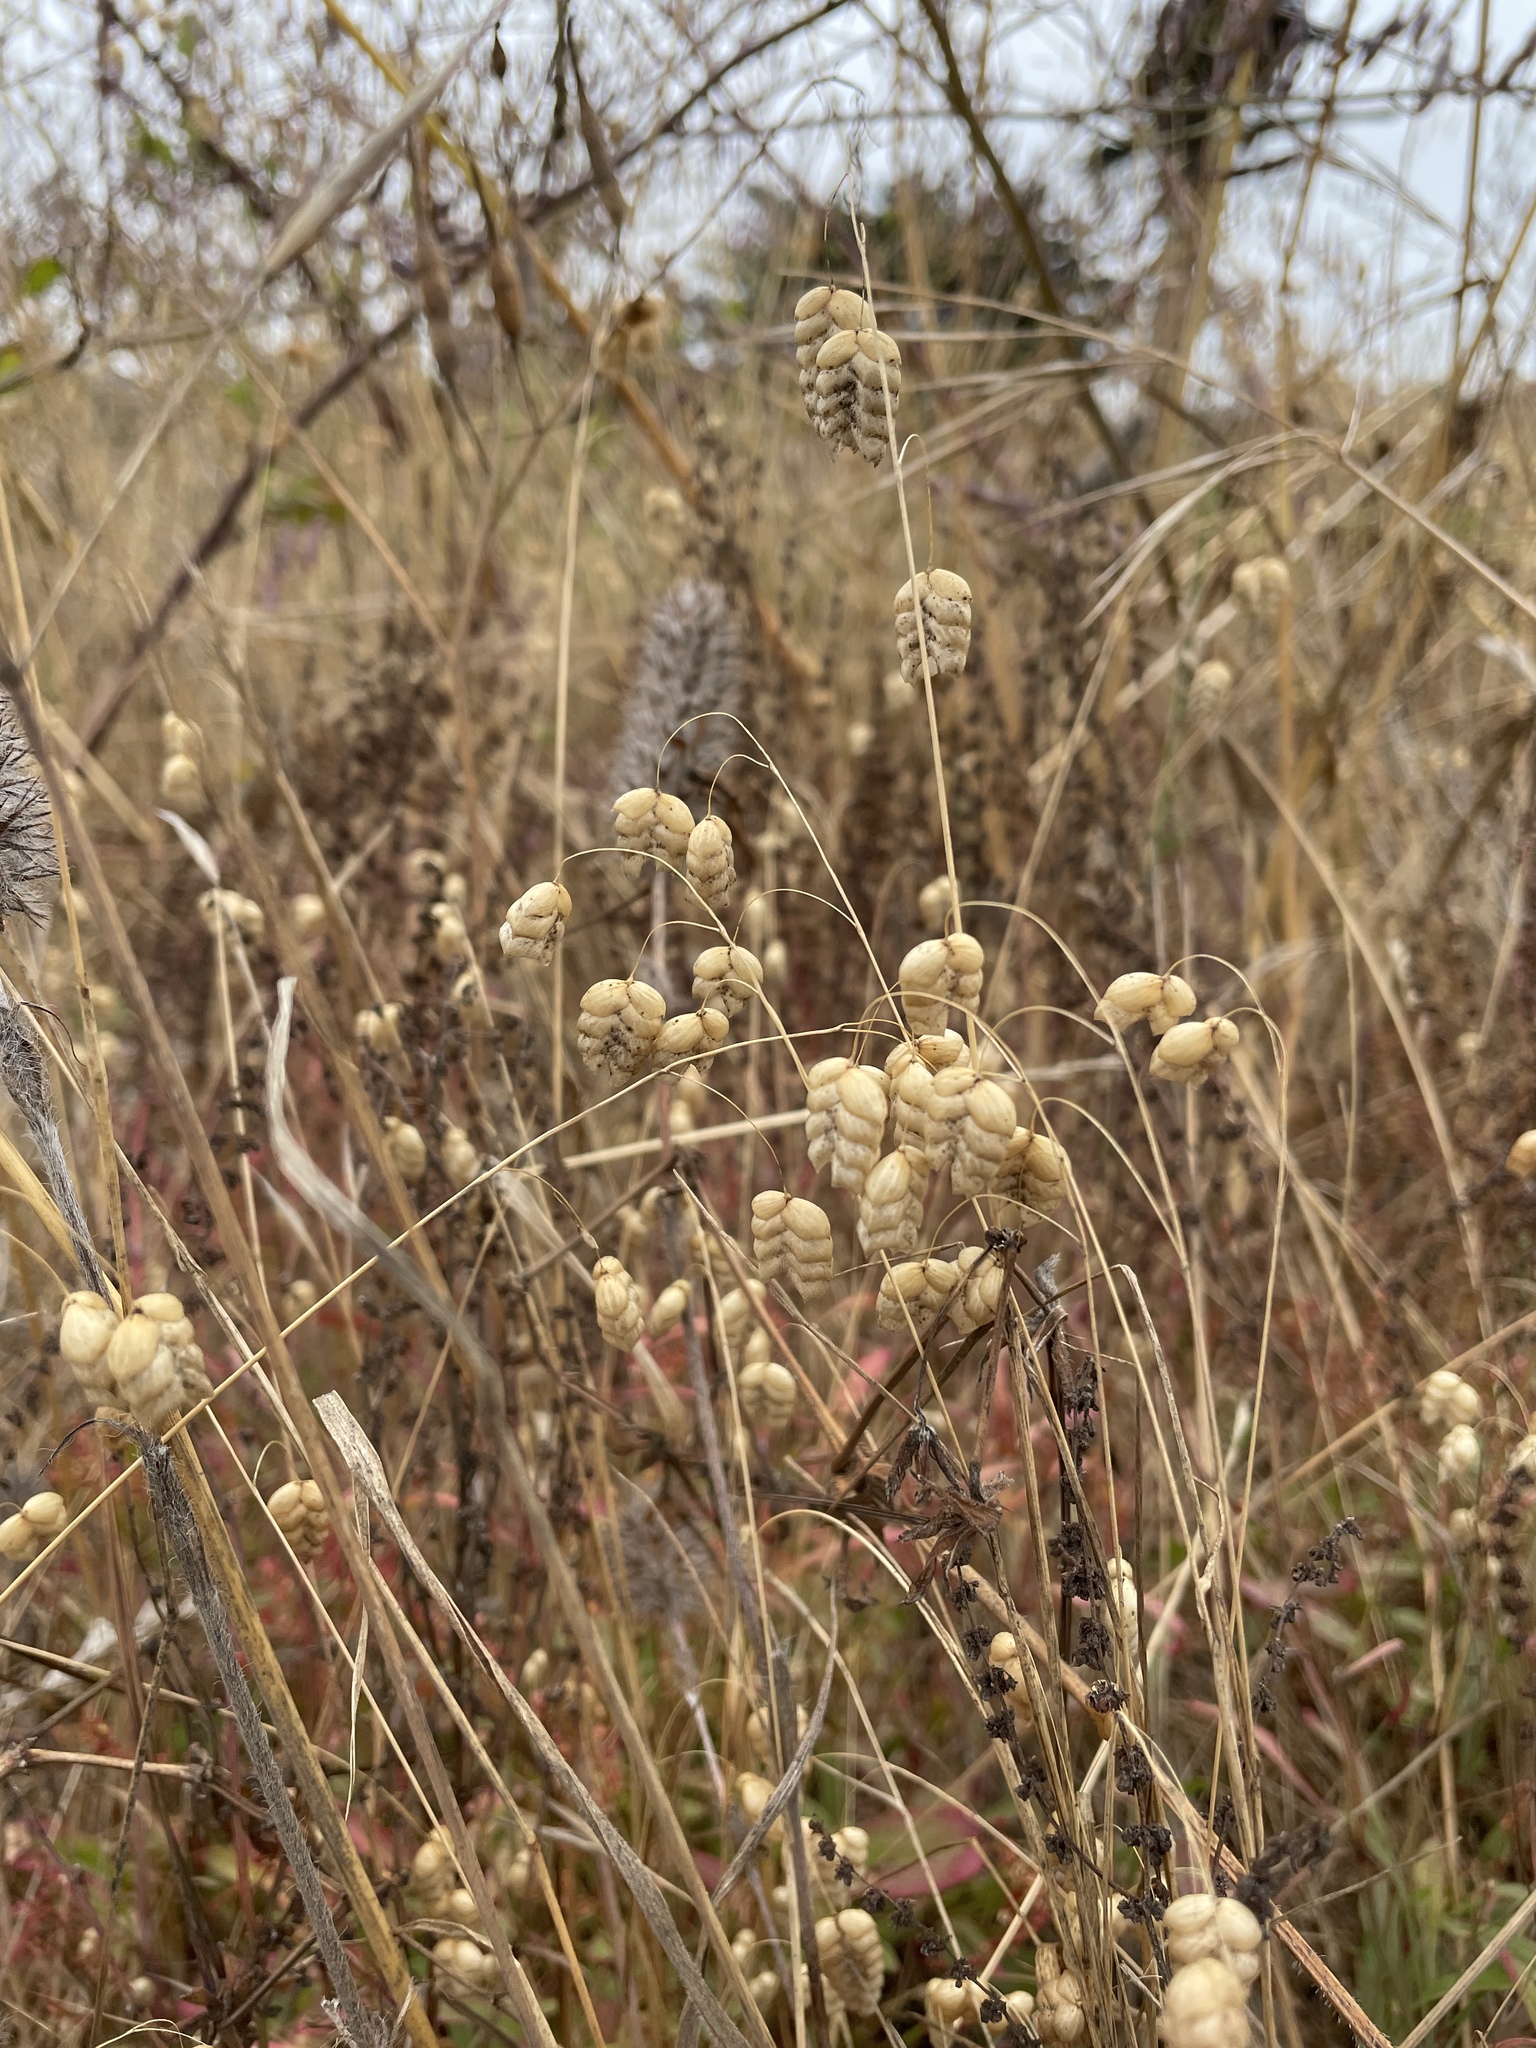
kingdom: Plantae
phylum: Tracheophyta
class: Liliopsida
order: Poales
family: Poaceae
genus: Briza
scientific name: Briza maxima
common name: Big quakinggrass
